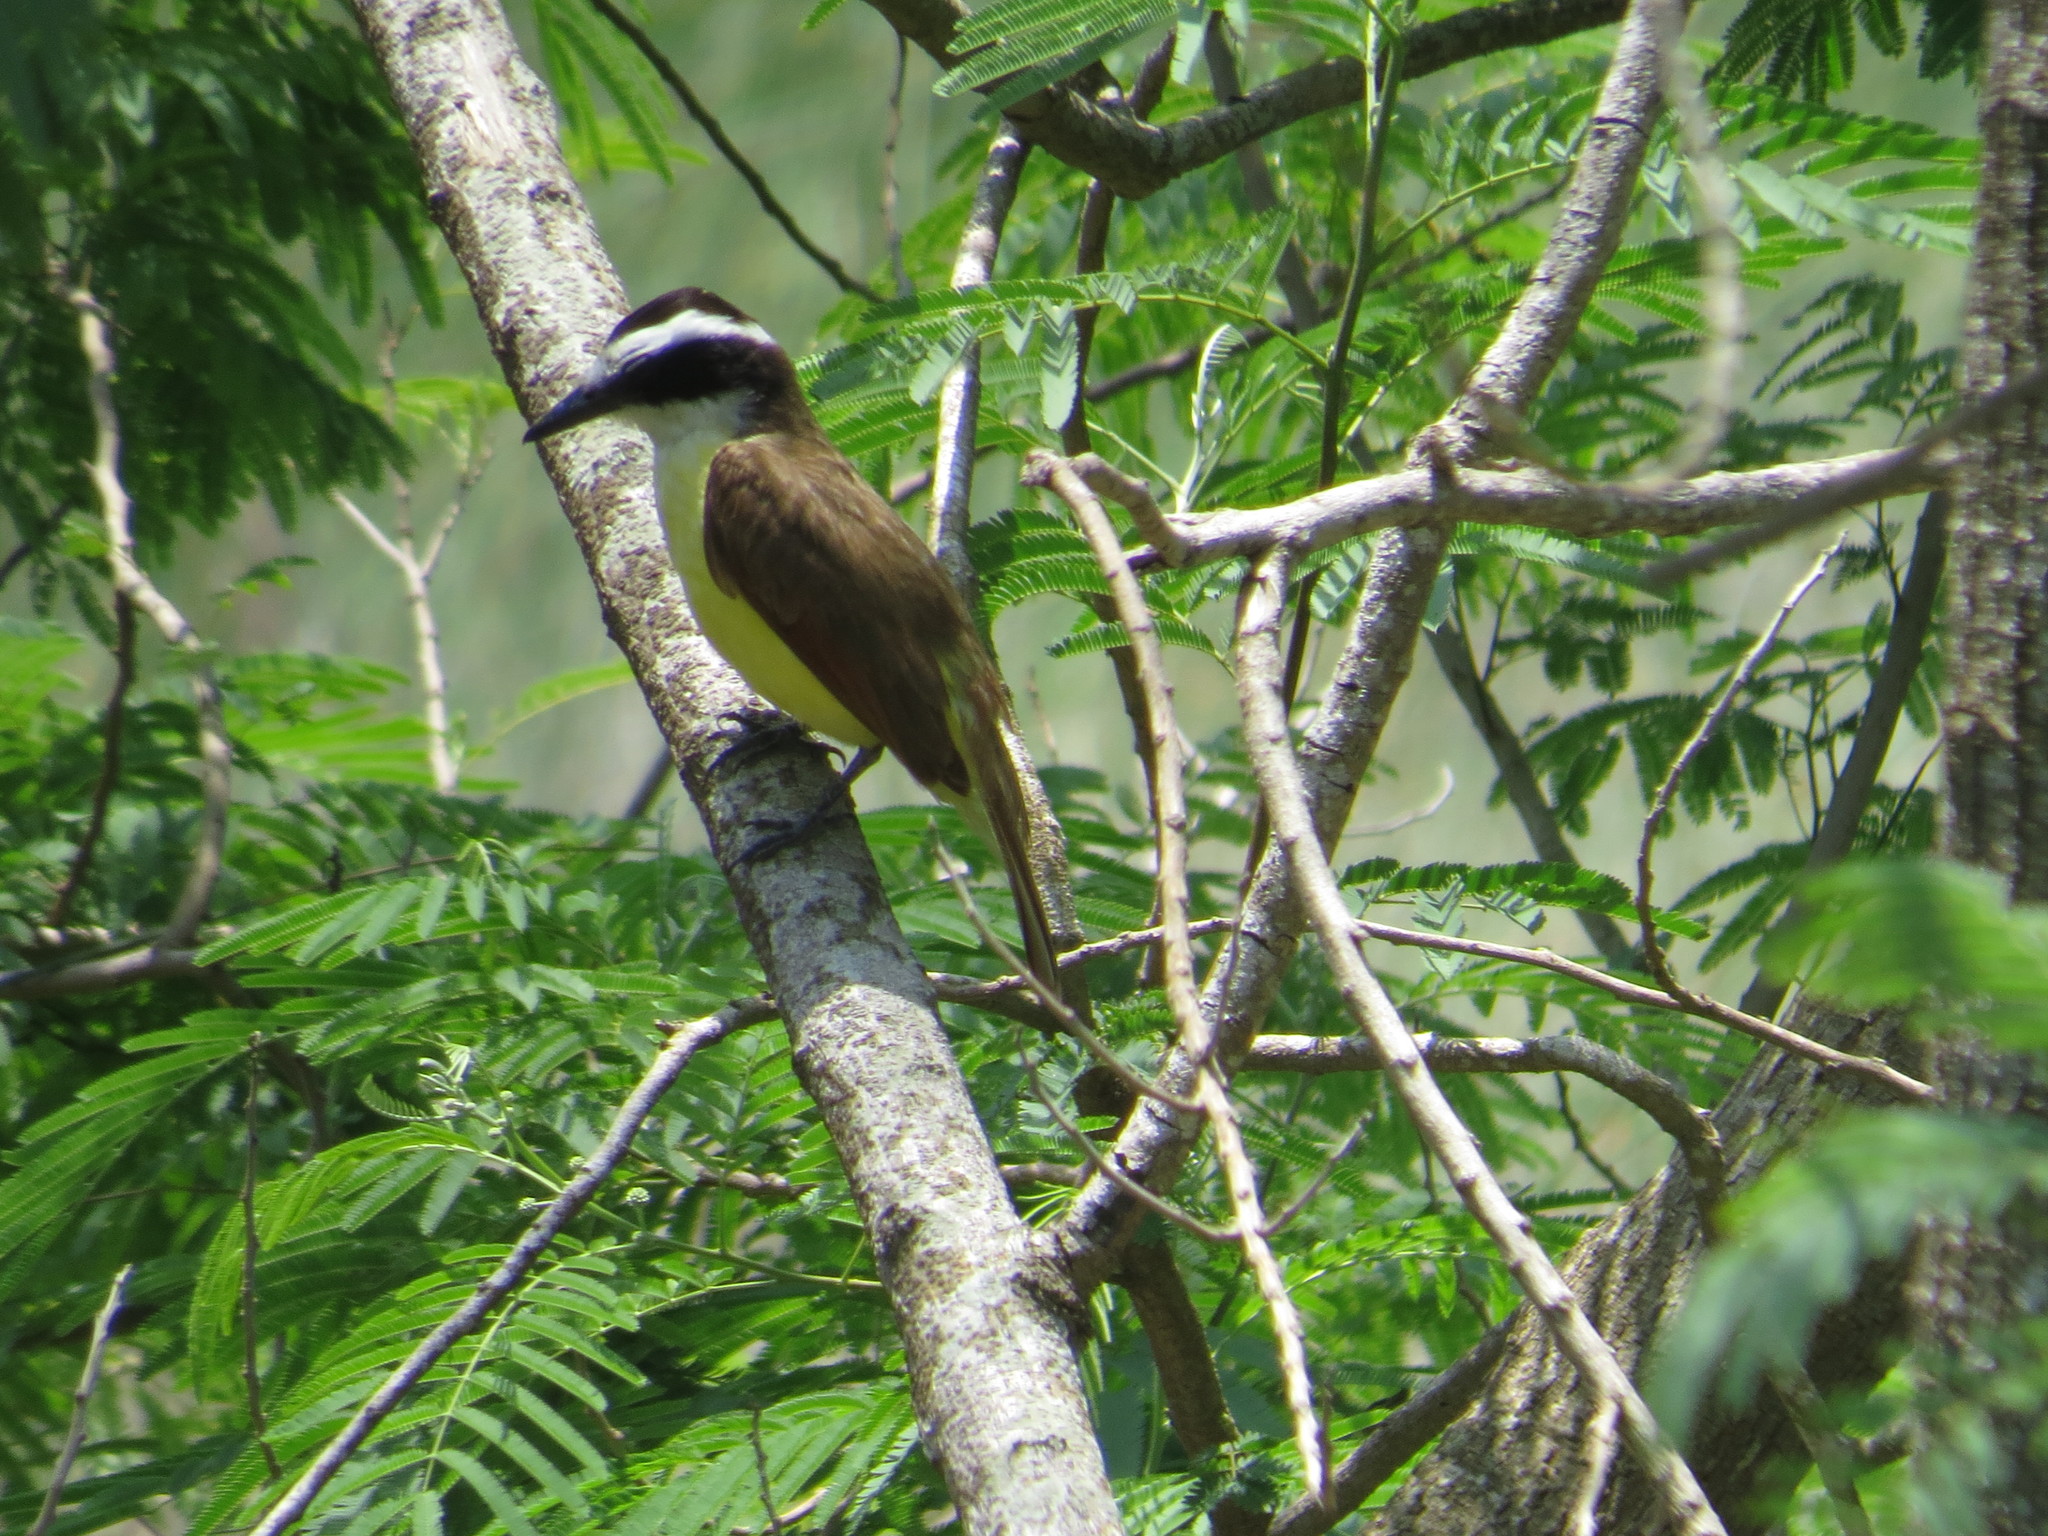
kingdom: Animalia
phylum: Chordata
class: Aves
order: Passeriformes
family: Tyrannidae
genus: Pitangus
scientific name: Pitangus sulphuratus
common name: Great kiskadee
